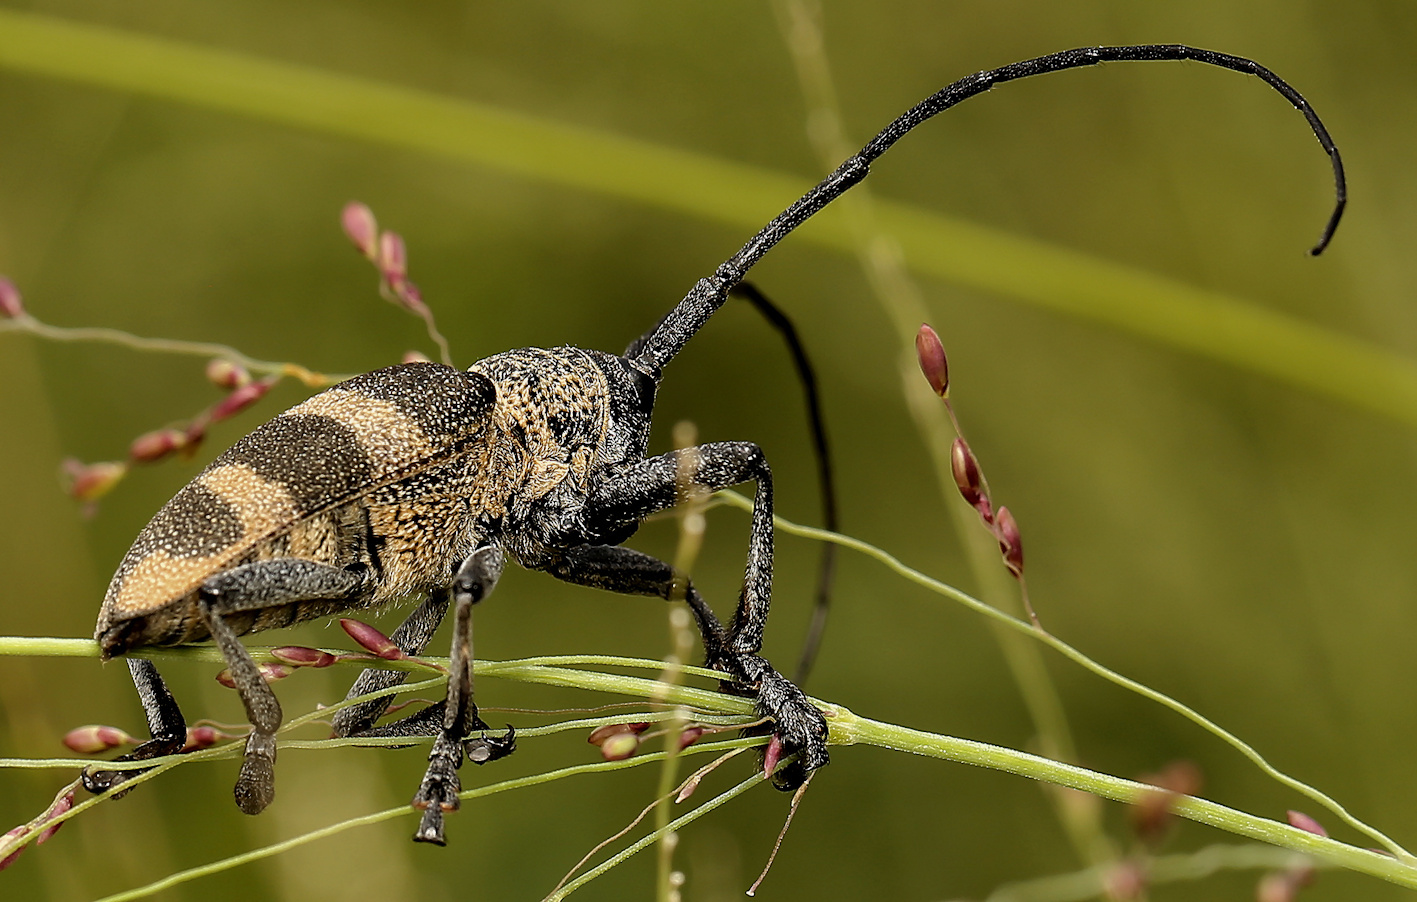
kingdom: Animalia
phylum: Arthropoda
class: Insecta
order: Coleoptera
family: Cerambycidae
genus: Pycnopsis
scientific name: Pycnopsis brachyptera
